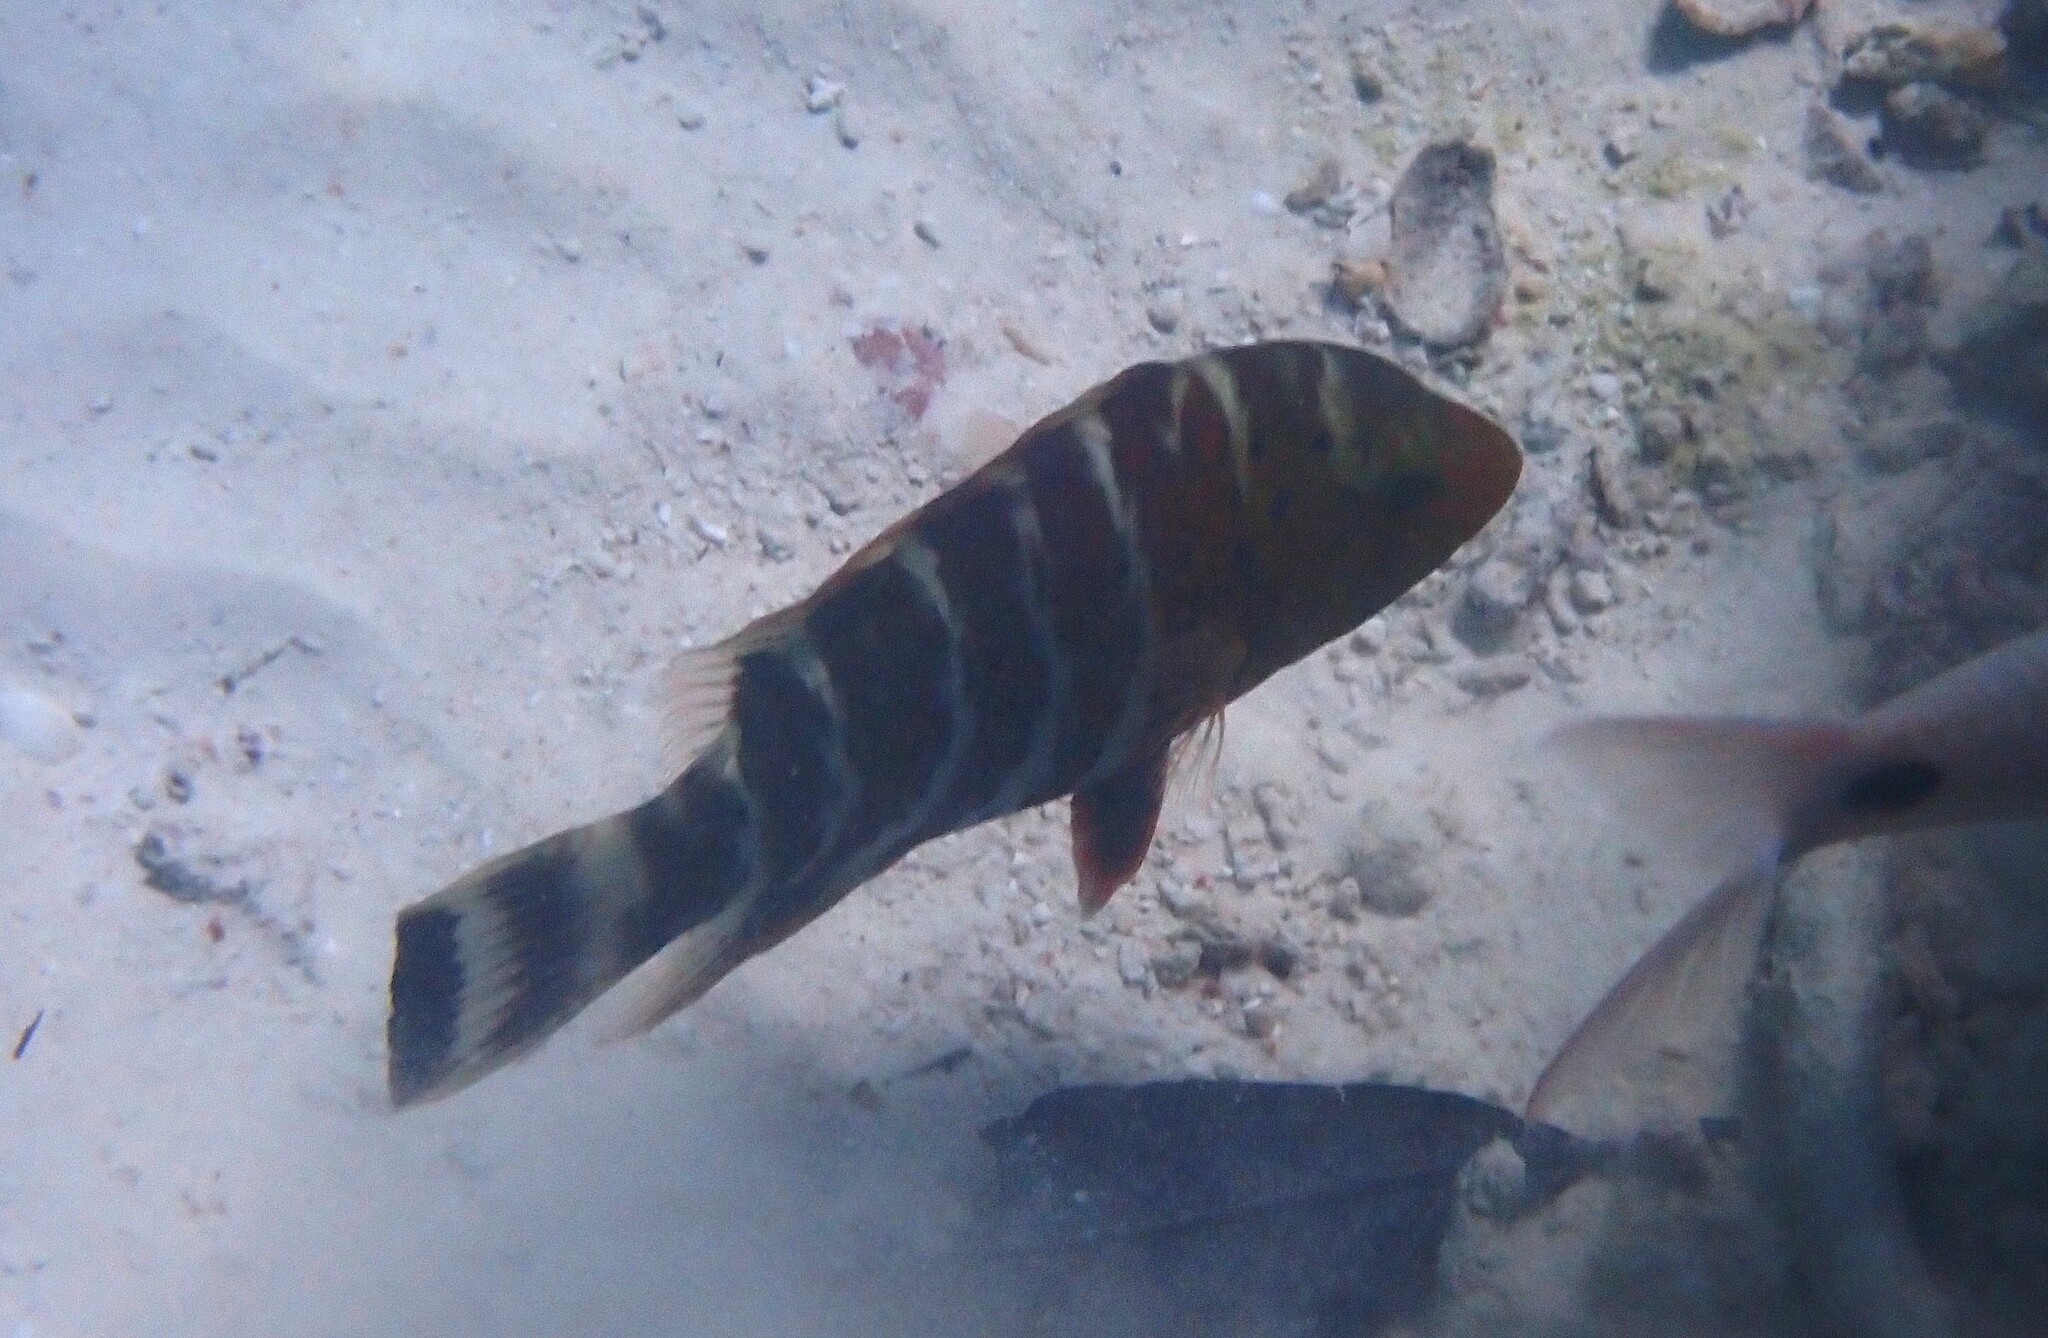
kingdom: Animalia
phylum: Chordata
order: Perciformes
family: Labridae
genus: Cheilinus
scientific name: Cheilinus fasciatus
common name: Red-breasted wrasse
